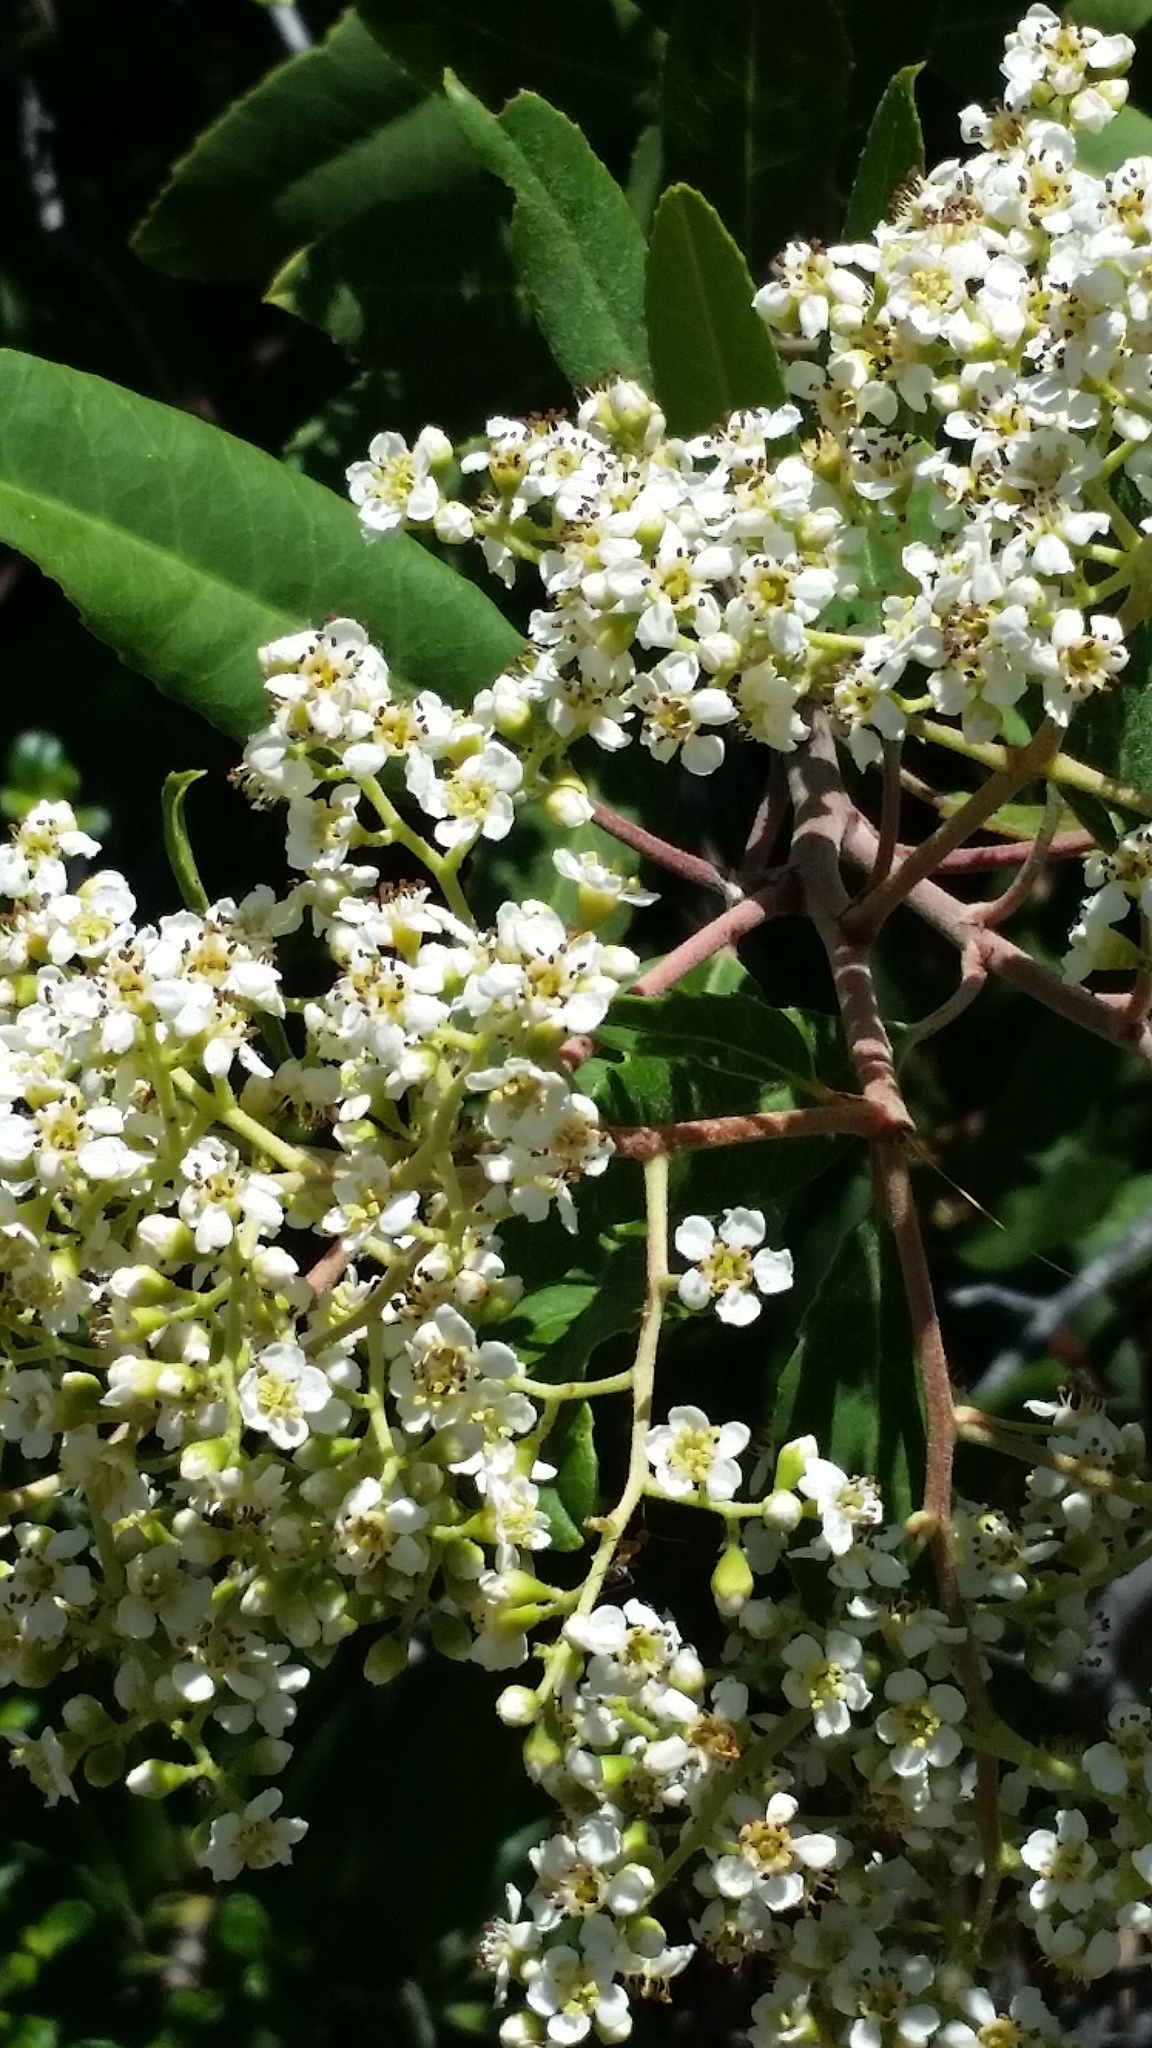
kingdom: Plantae
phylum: Tracheophyta
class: Magnoliopsida
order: Rosales
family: Rosaceae
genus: Heteromeles
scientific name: Heteromeles arbutifolia
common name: California-holly
